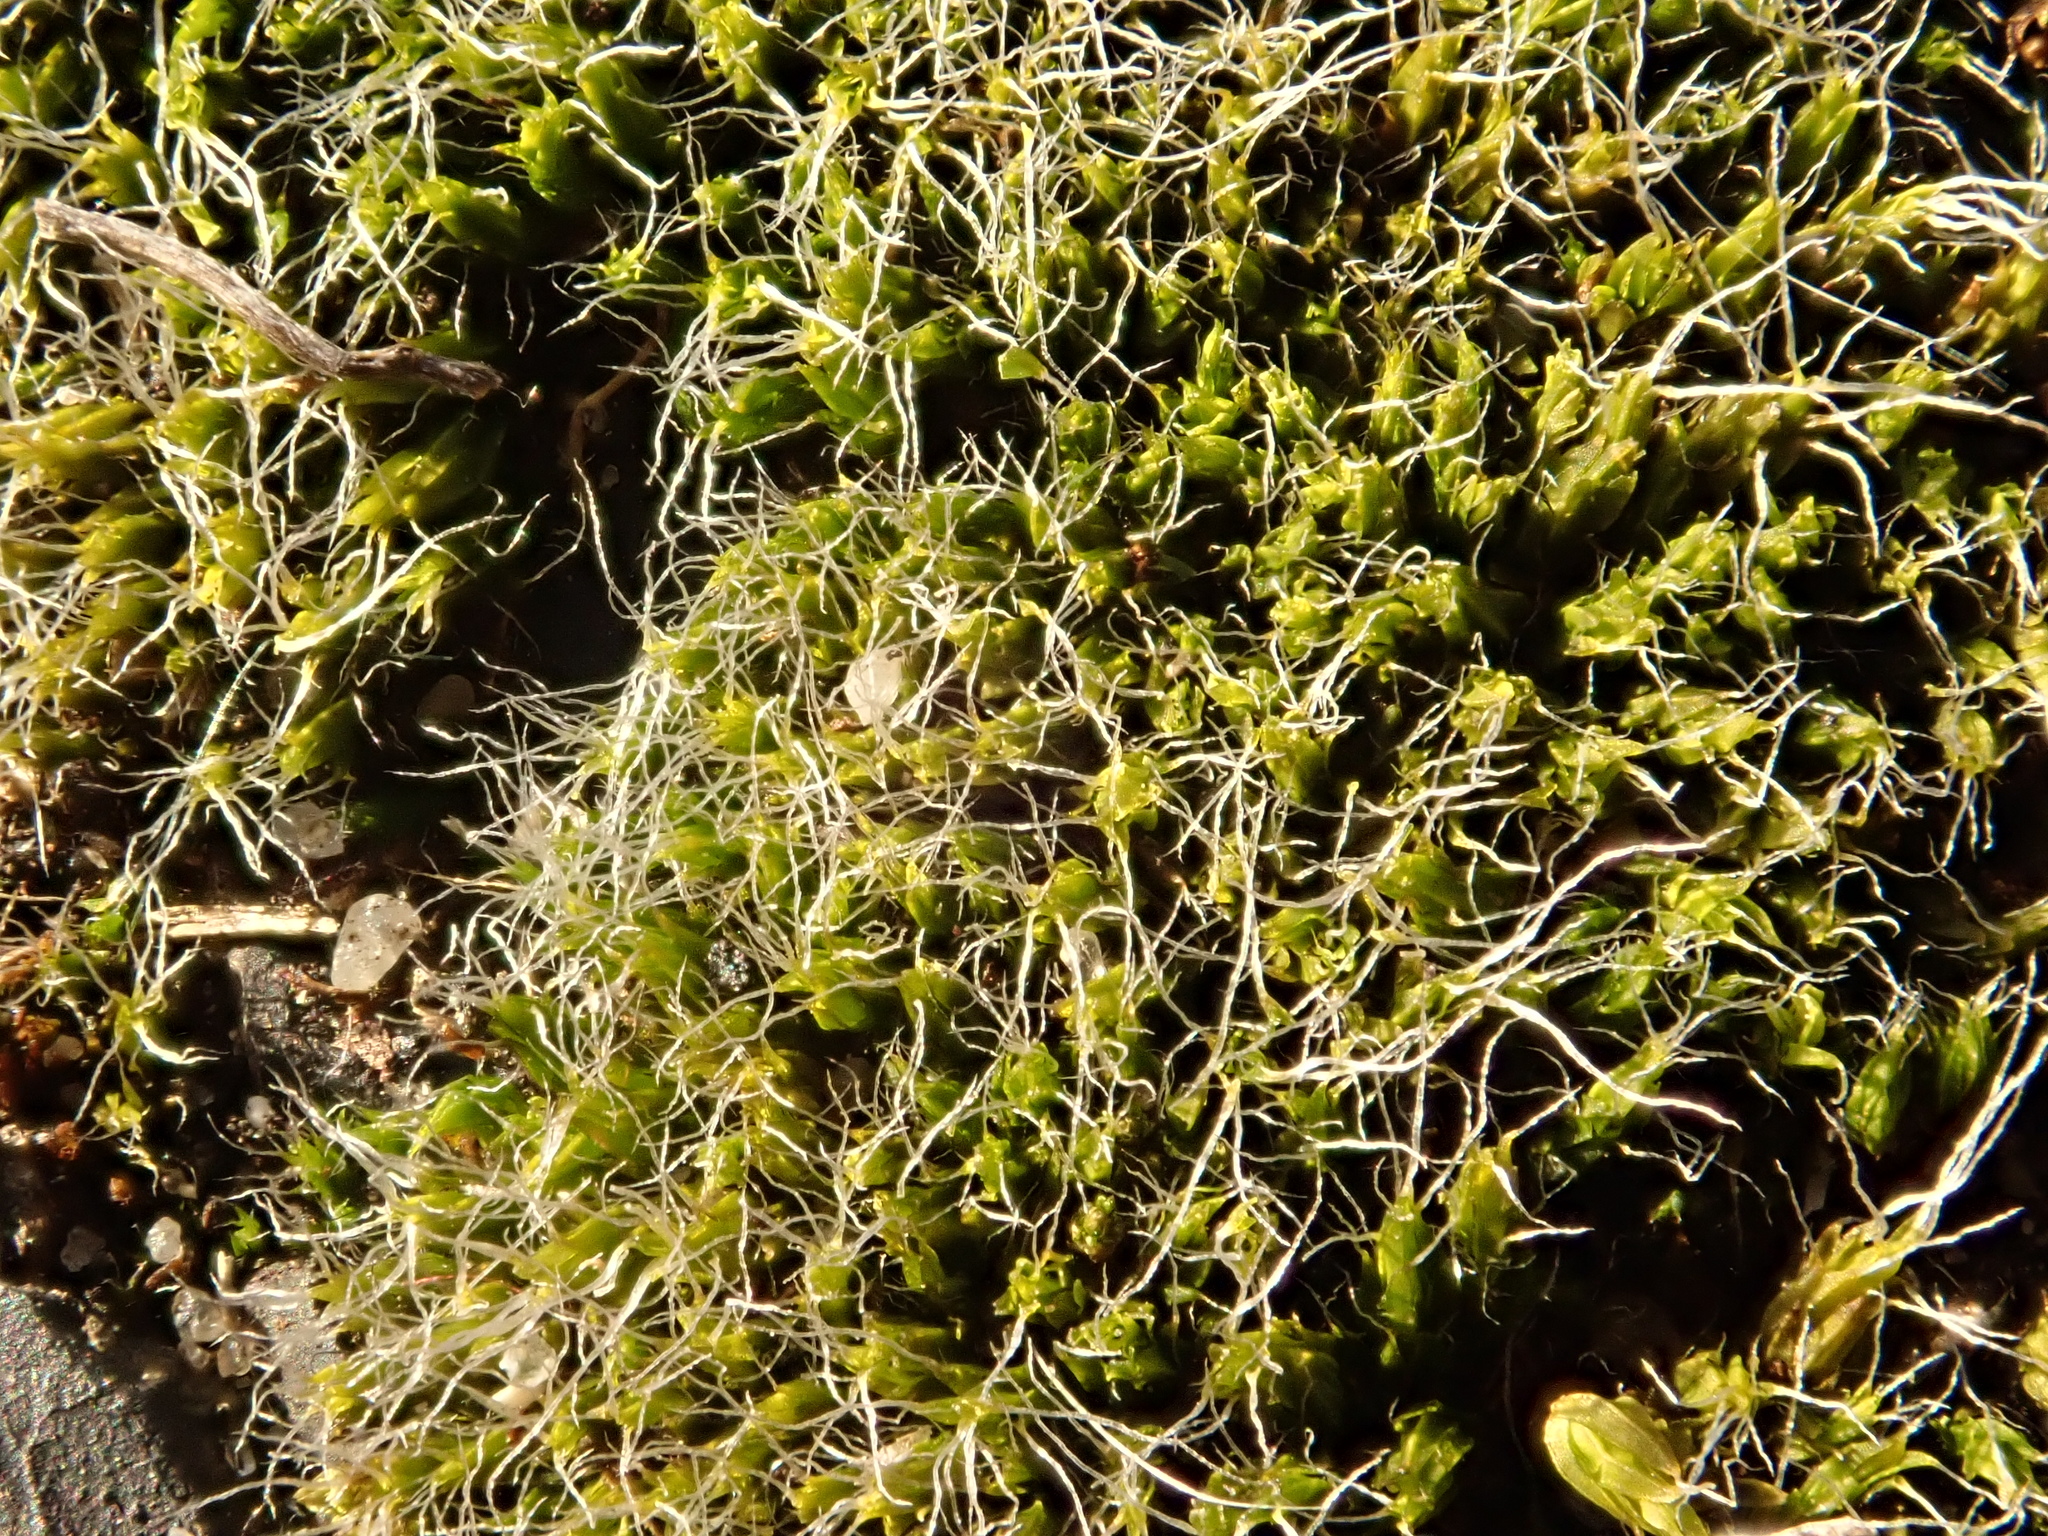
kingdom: Plantae
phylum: Bryophyta
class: Bryopsida
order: Grimmiales
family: Grimmiaceae
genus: Grimmia
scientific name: Grimmia pulvinata
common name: Grey-cushioned grimmia
